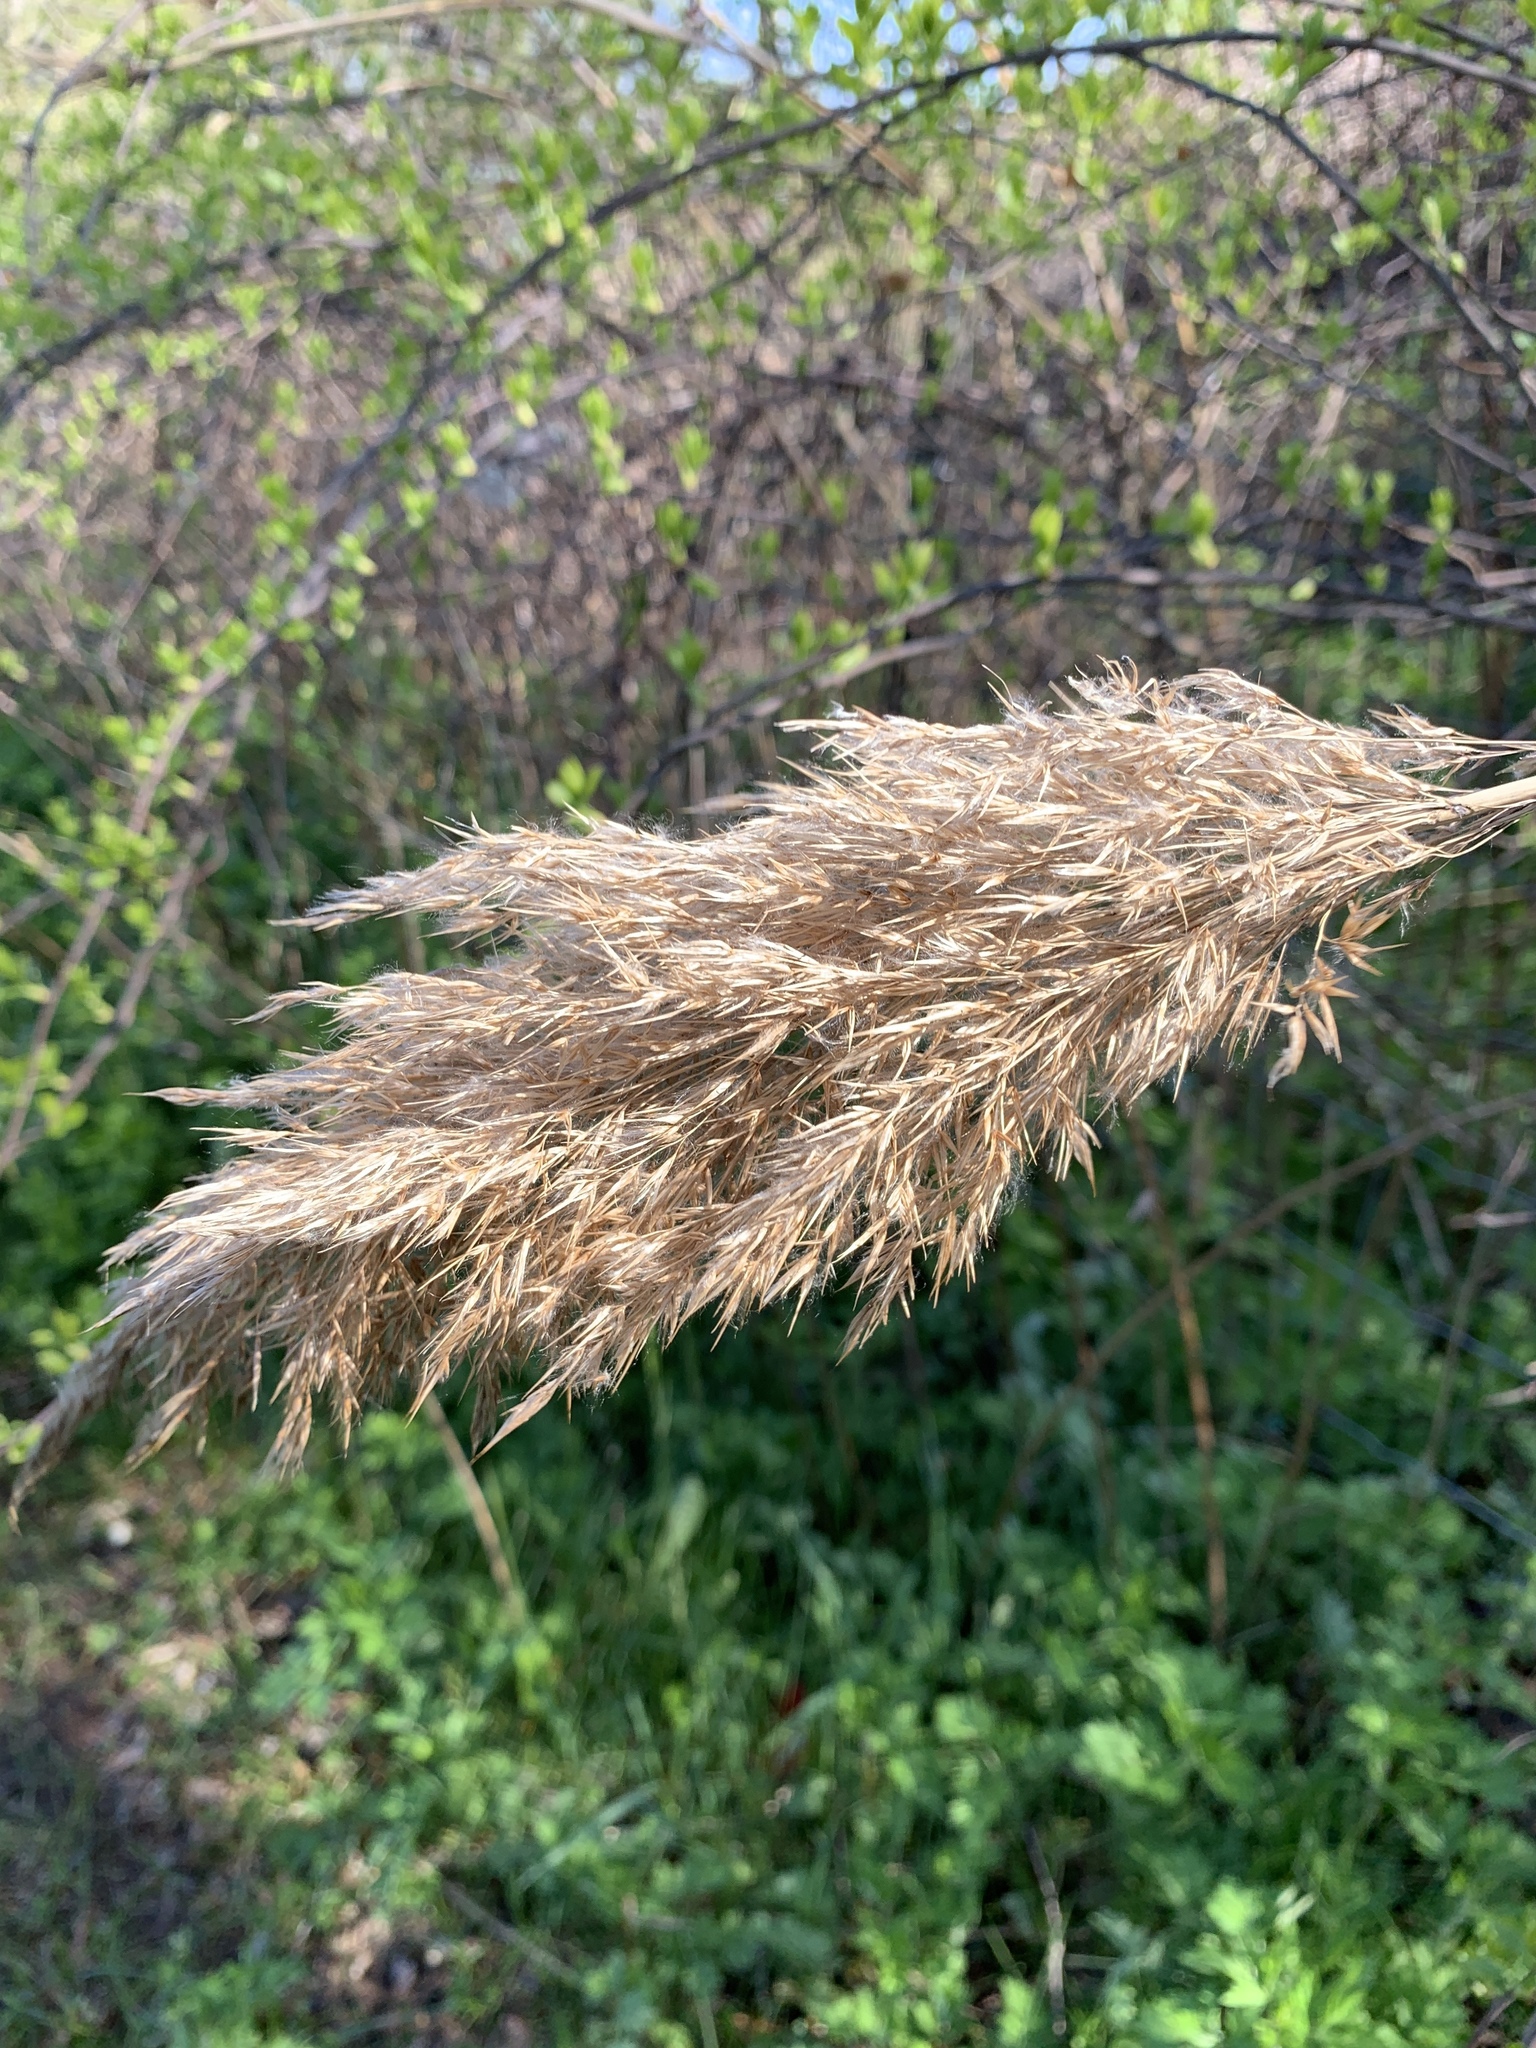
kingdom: Plantae
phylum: Tracheophyta
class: Liliopsida
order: Poales
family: Poaceae
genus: Phragmites
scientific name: Phragmites australis
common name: Common reed
